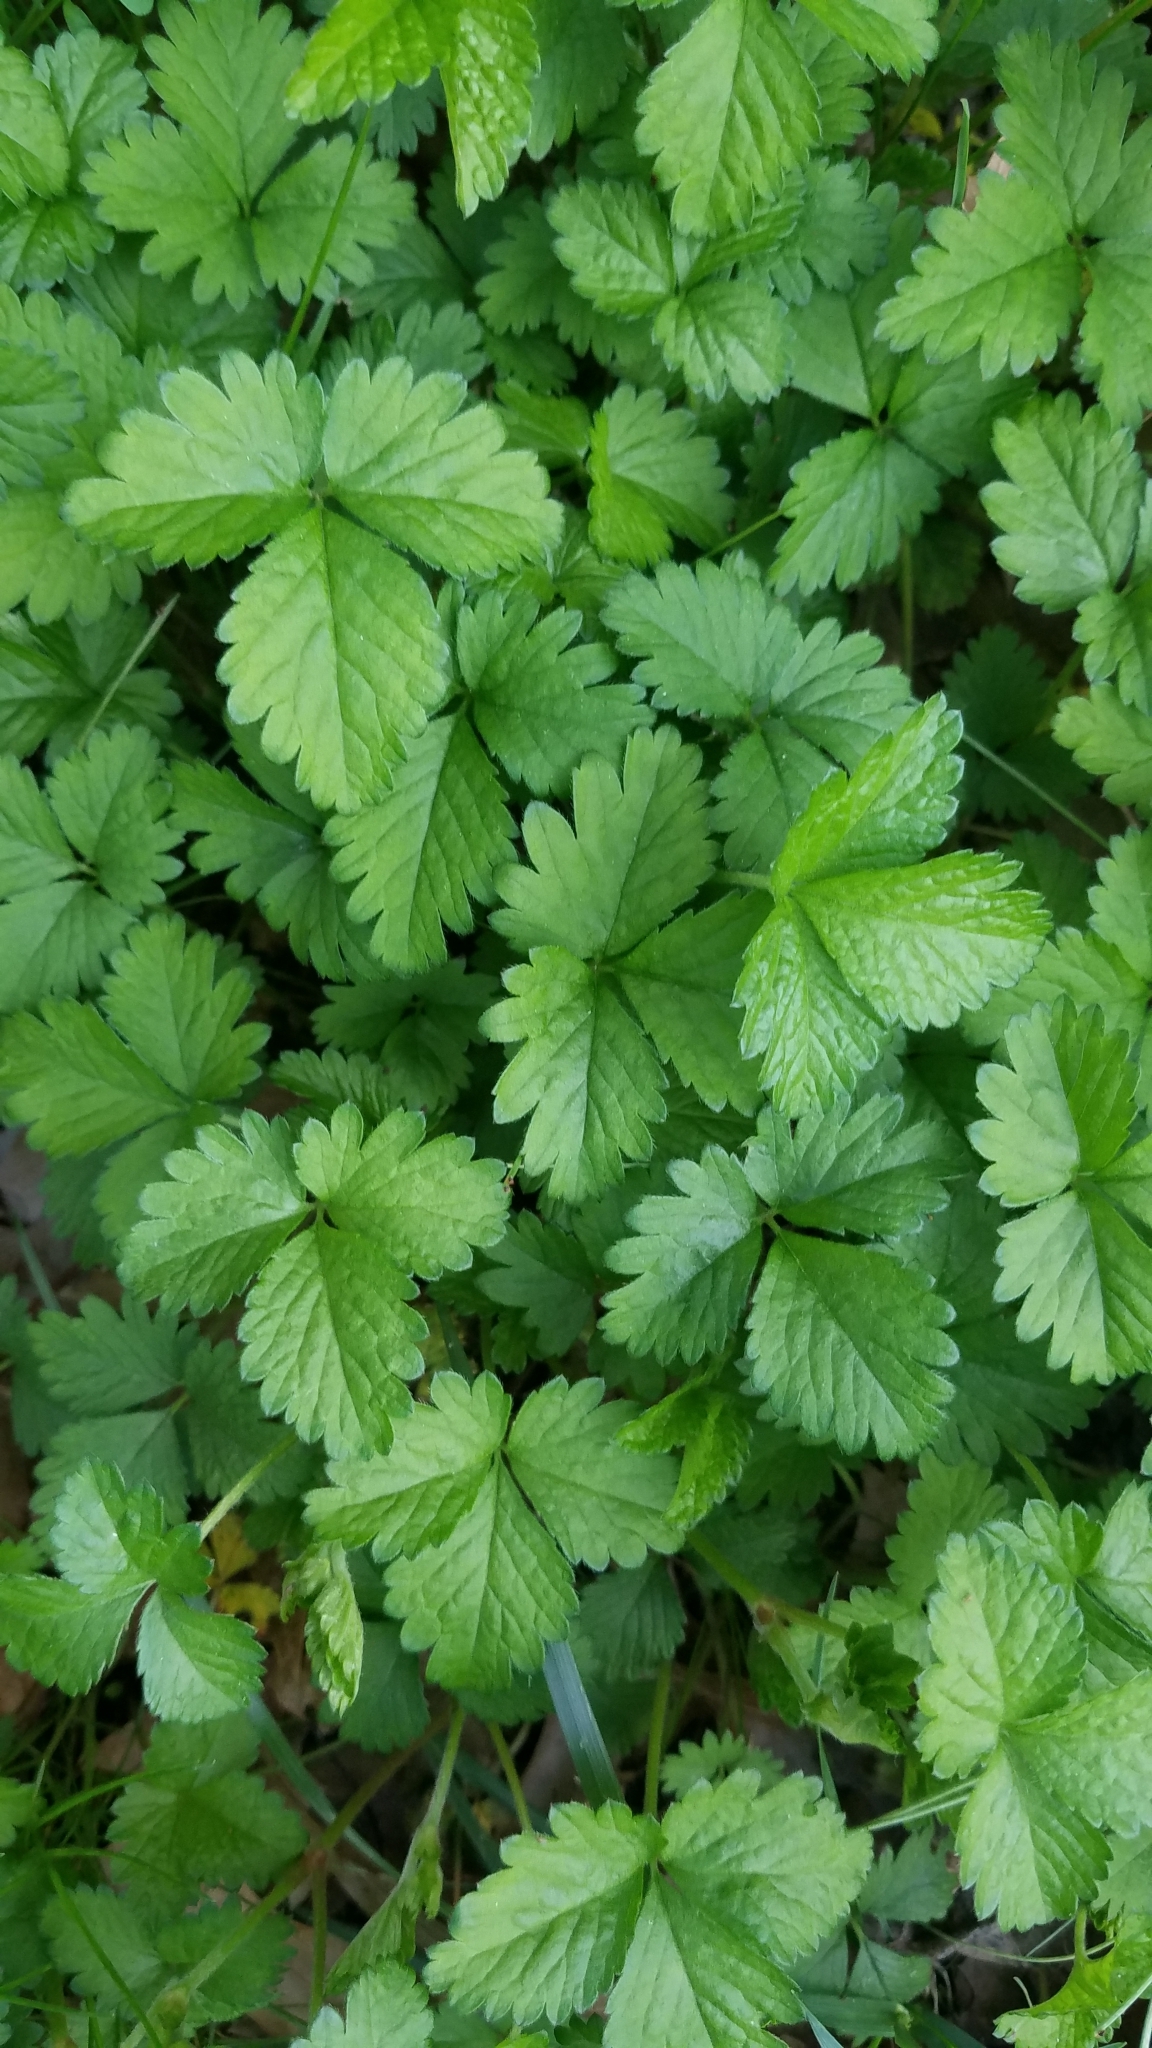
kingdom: Plantae
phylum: Tracheophyta
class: Magnoliopsida
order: Rosales
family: Rosaceae
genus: Potentilla
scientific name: Potentilla indica
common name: Yellow-flowered strawberry
